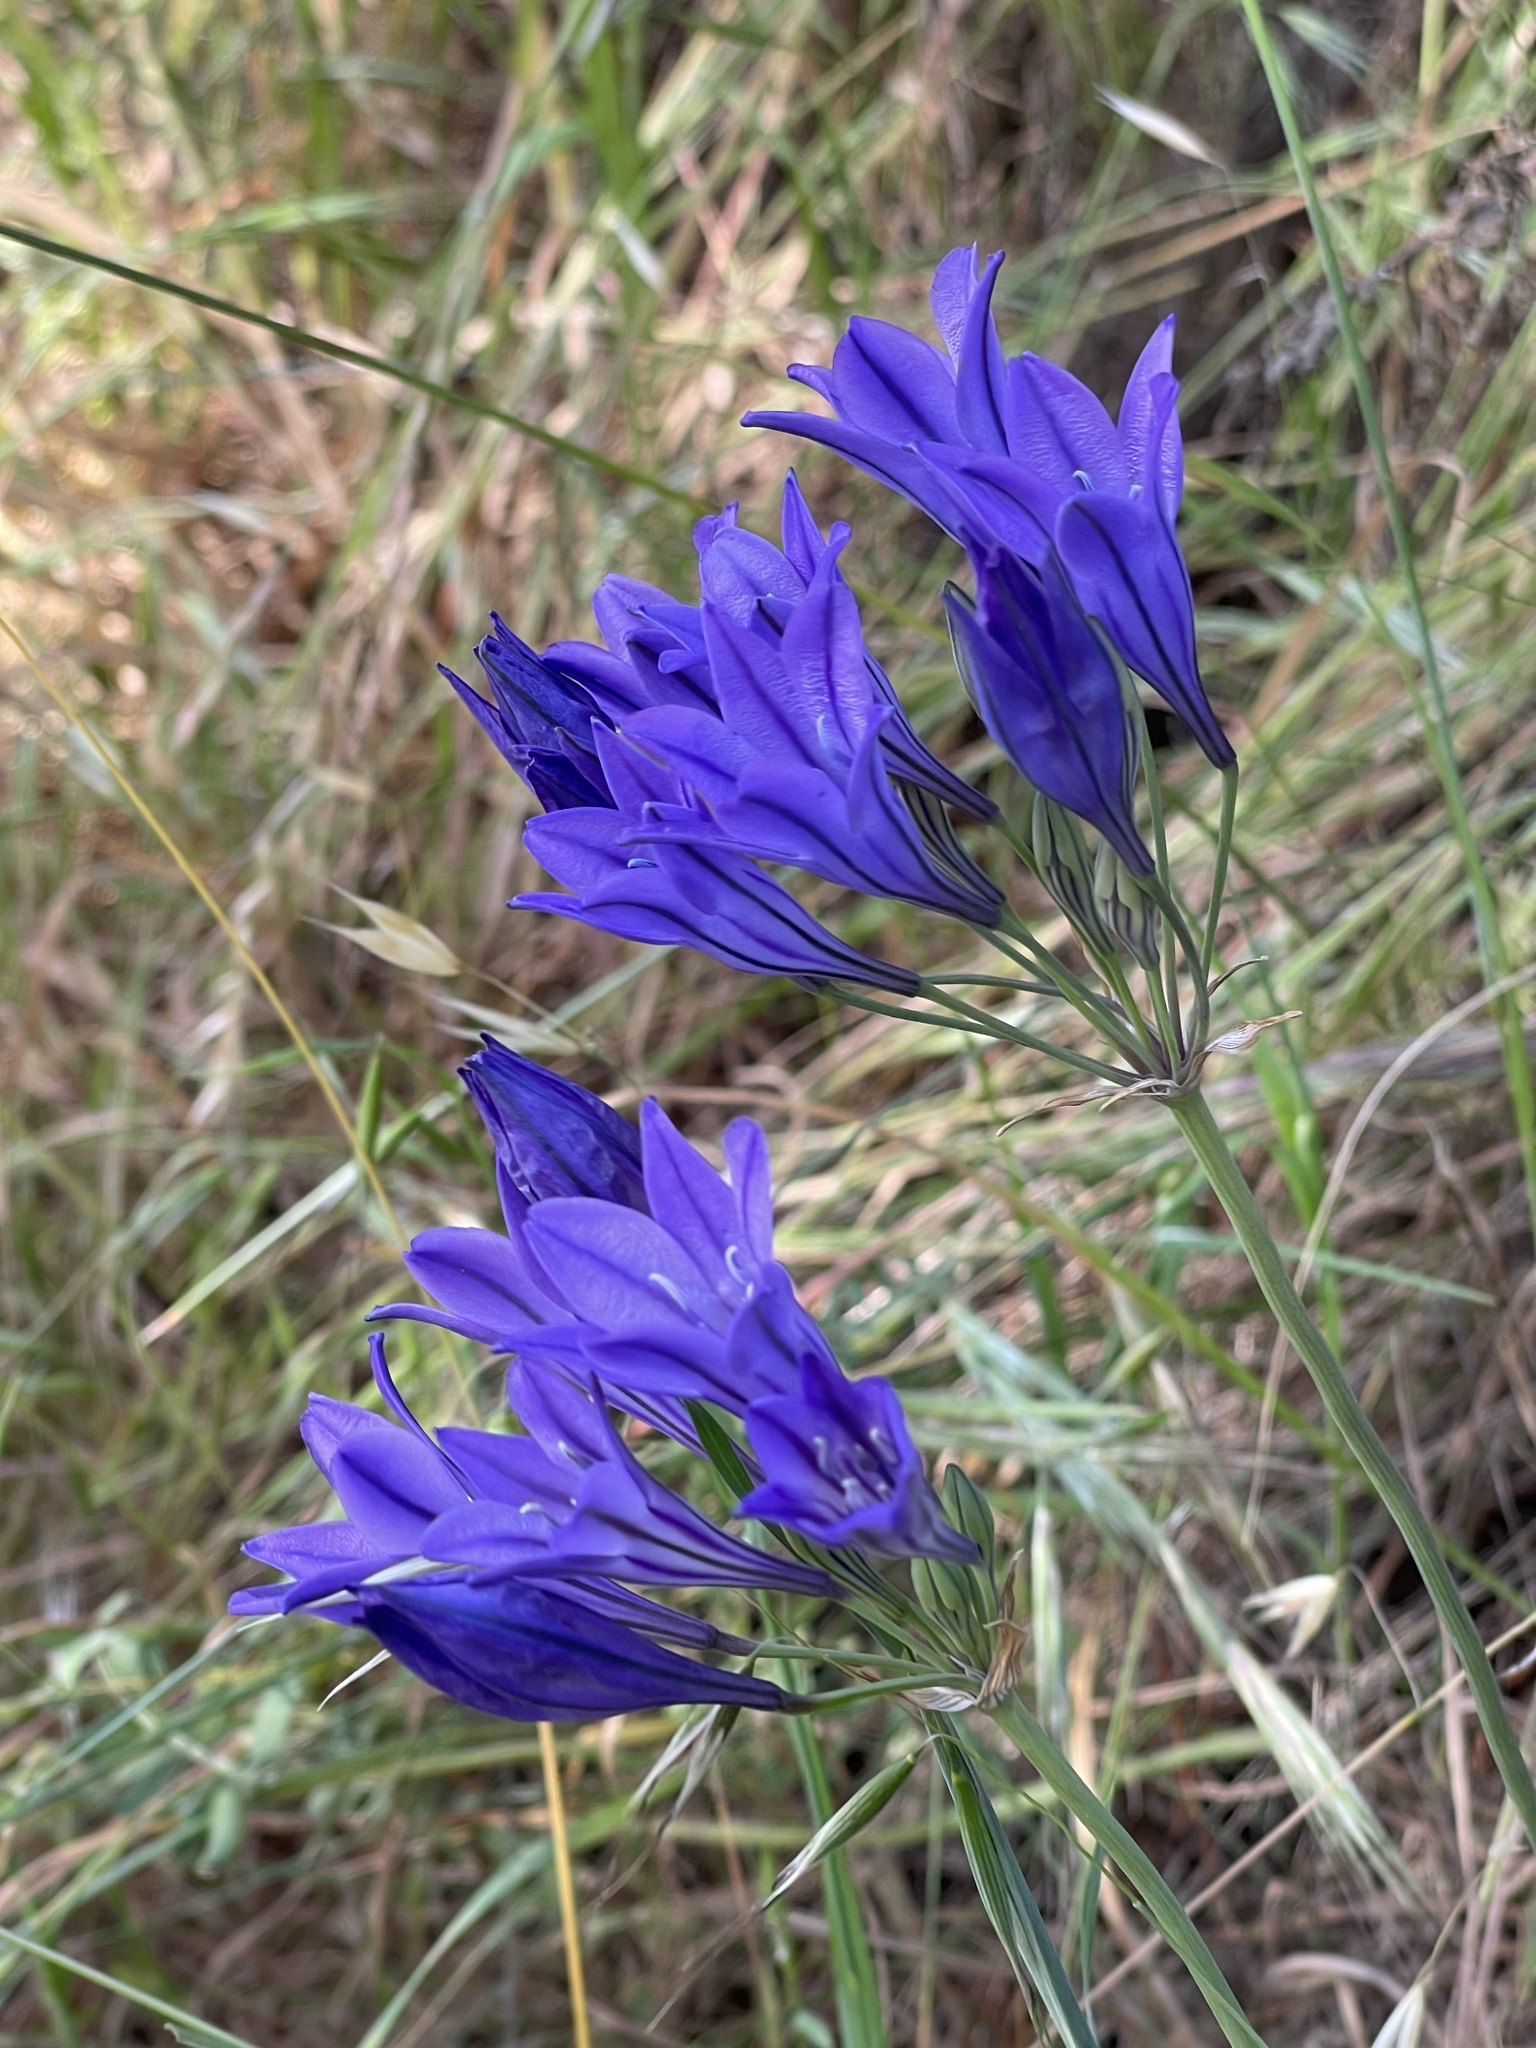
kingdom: Plantae
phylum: Tracheophyta
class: Liliopsida
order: Asparagales
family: Asparagaceae
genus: Triteleia
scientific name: Triteleia laxa
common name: Triplet-lily
